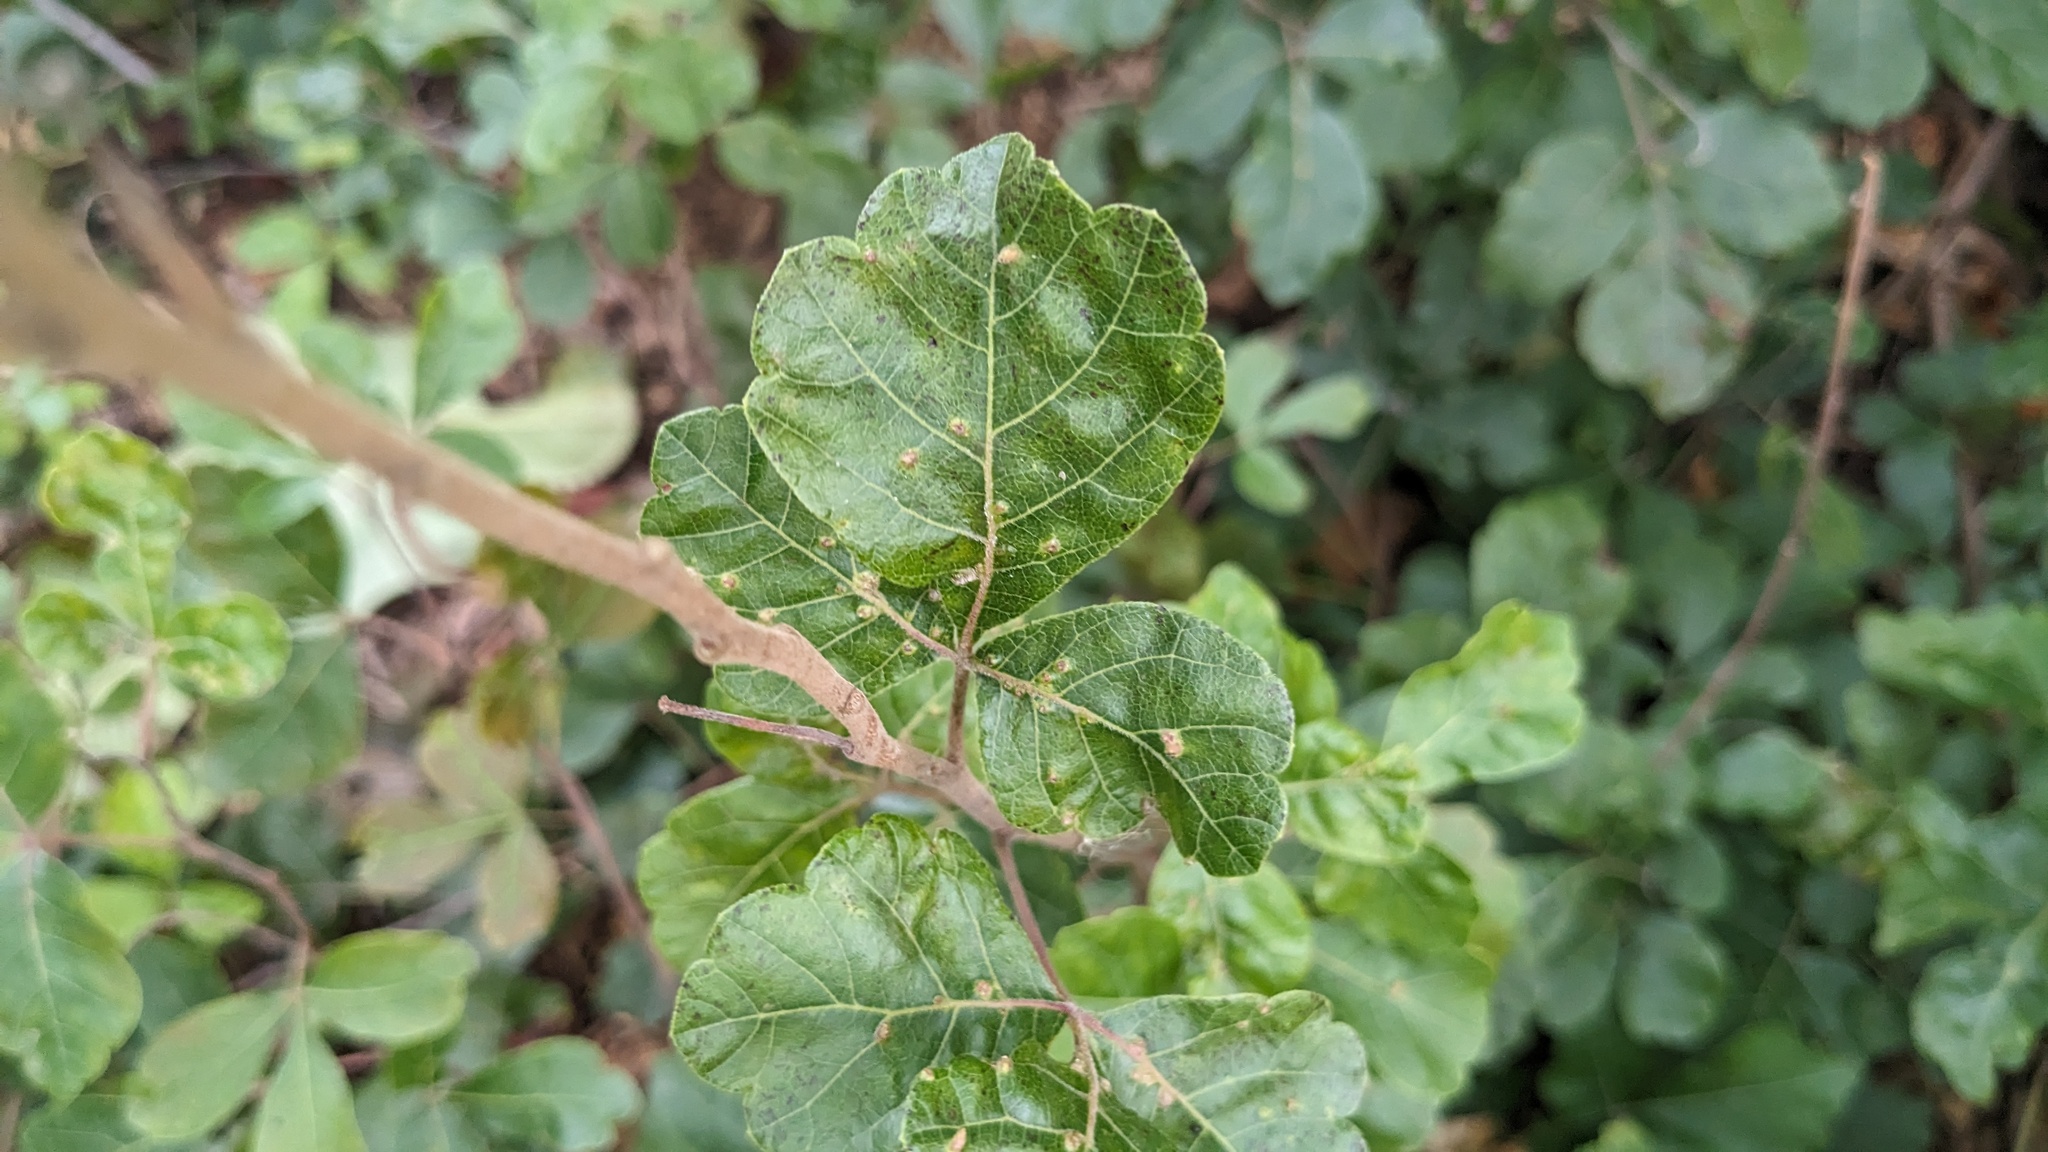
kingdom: Animalia
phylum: Arthropoda
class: Arachnida
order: Trombidiformes
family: Eriophyidae
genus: Aculops
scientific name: Aculops
